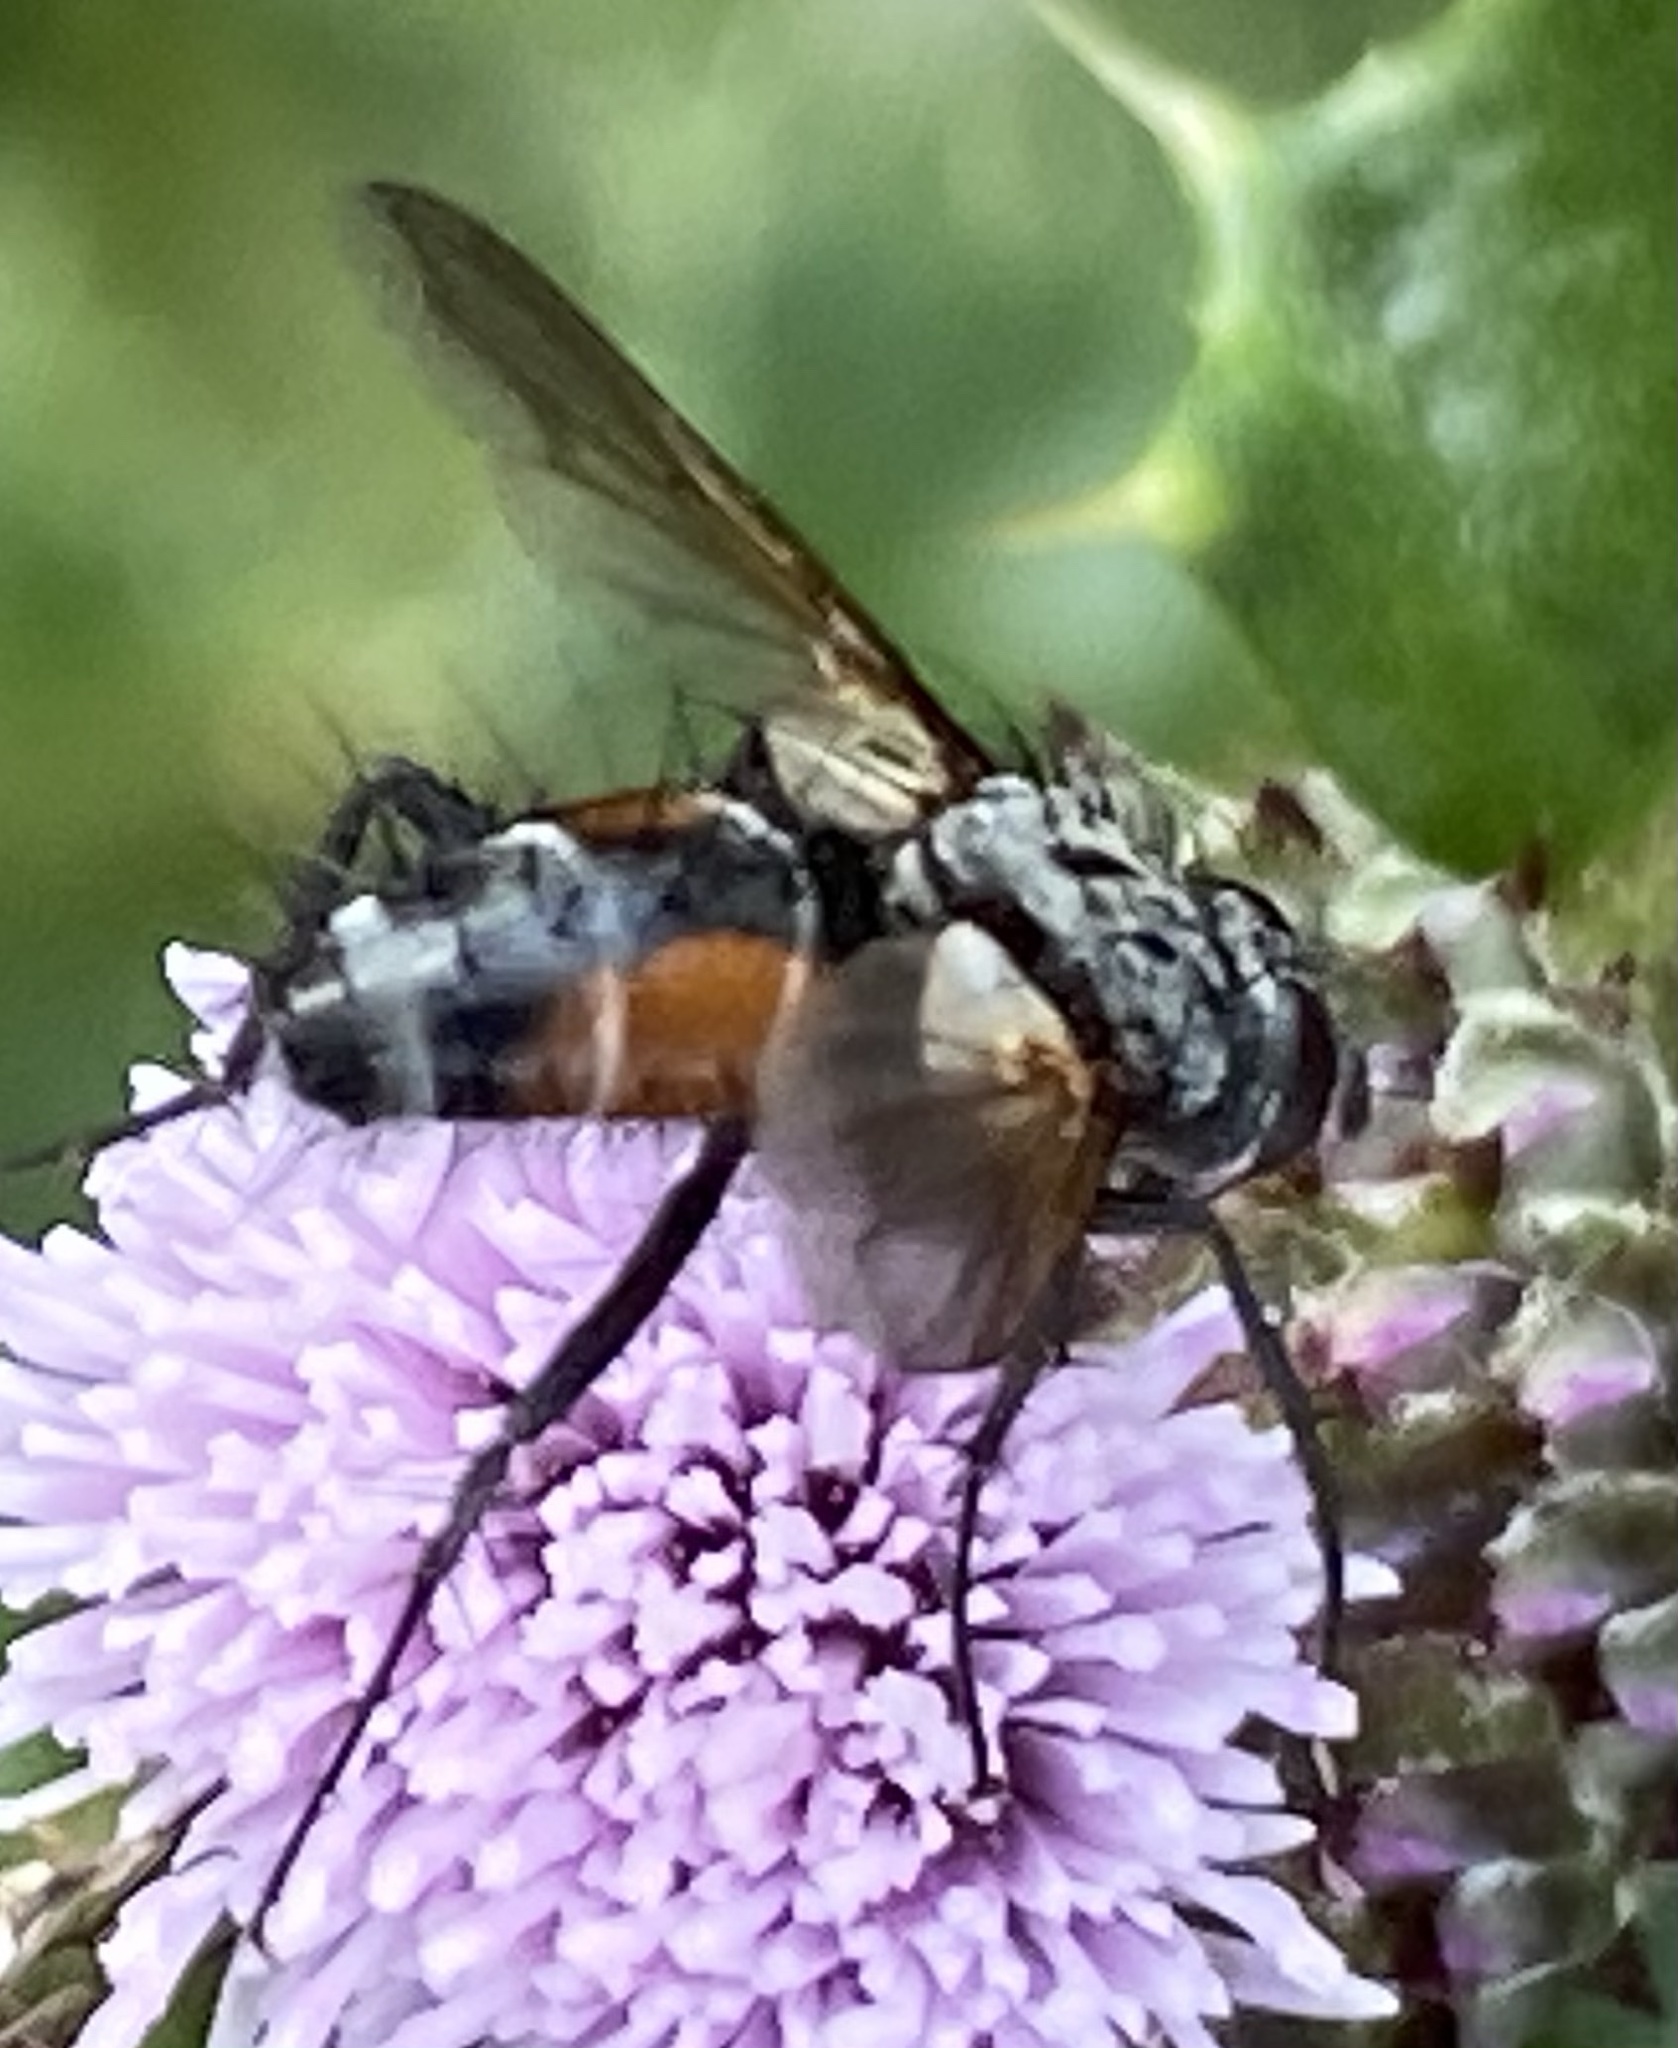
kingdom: Animalia
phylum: Arthropoda
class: Insecta
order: Diptera
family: Tachinidae
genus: Eriothrix
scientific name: Eriothrix rufomaculatus
